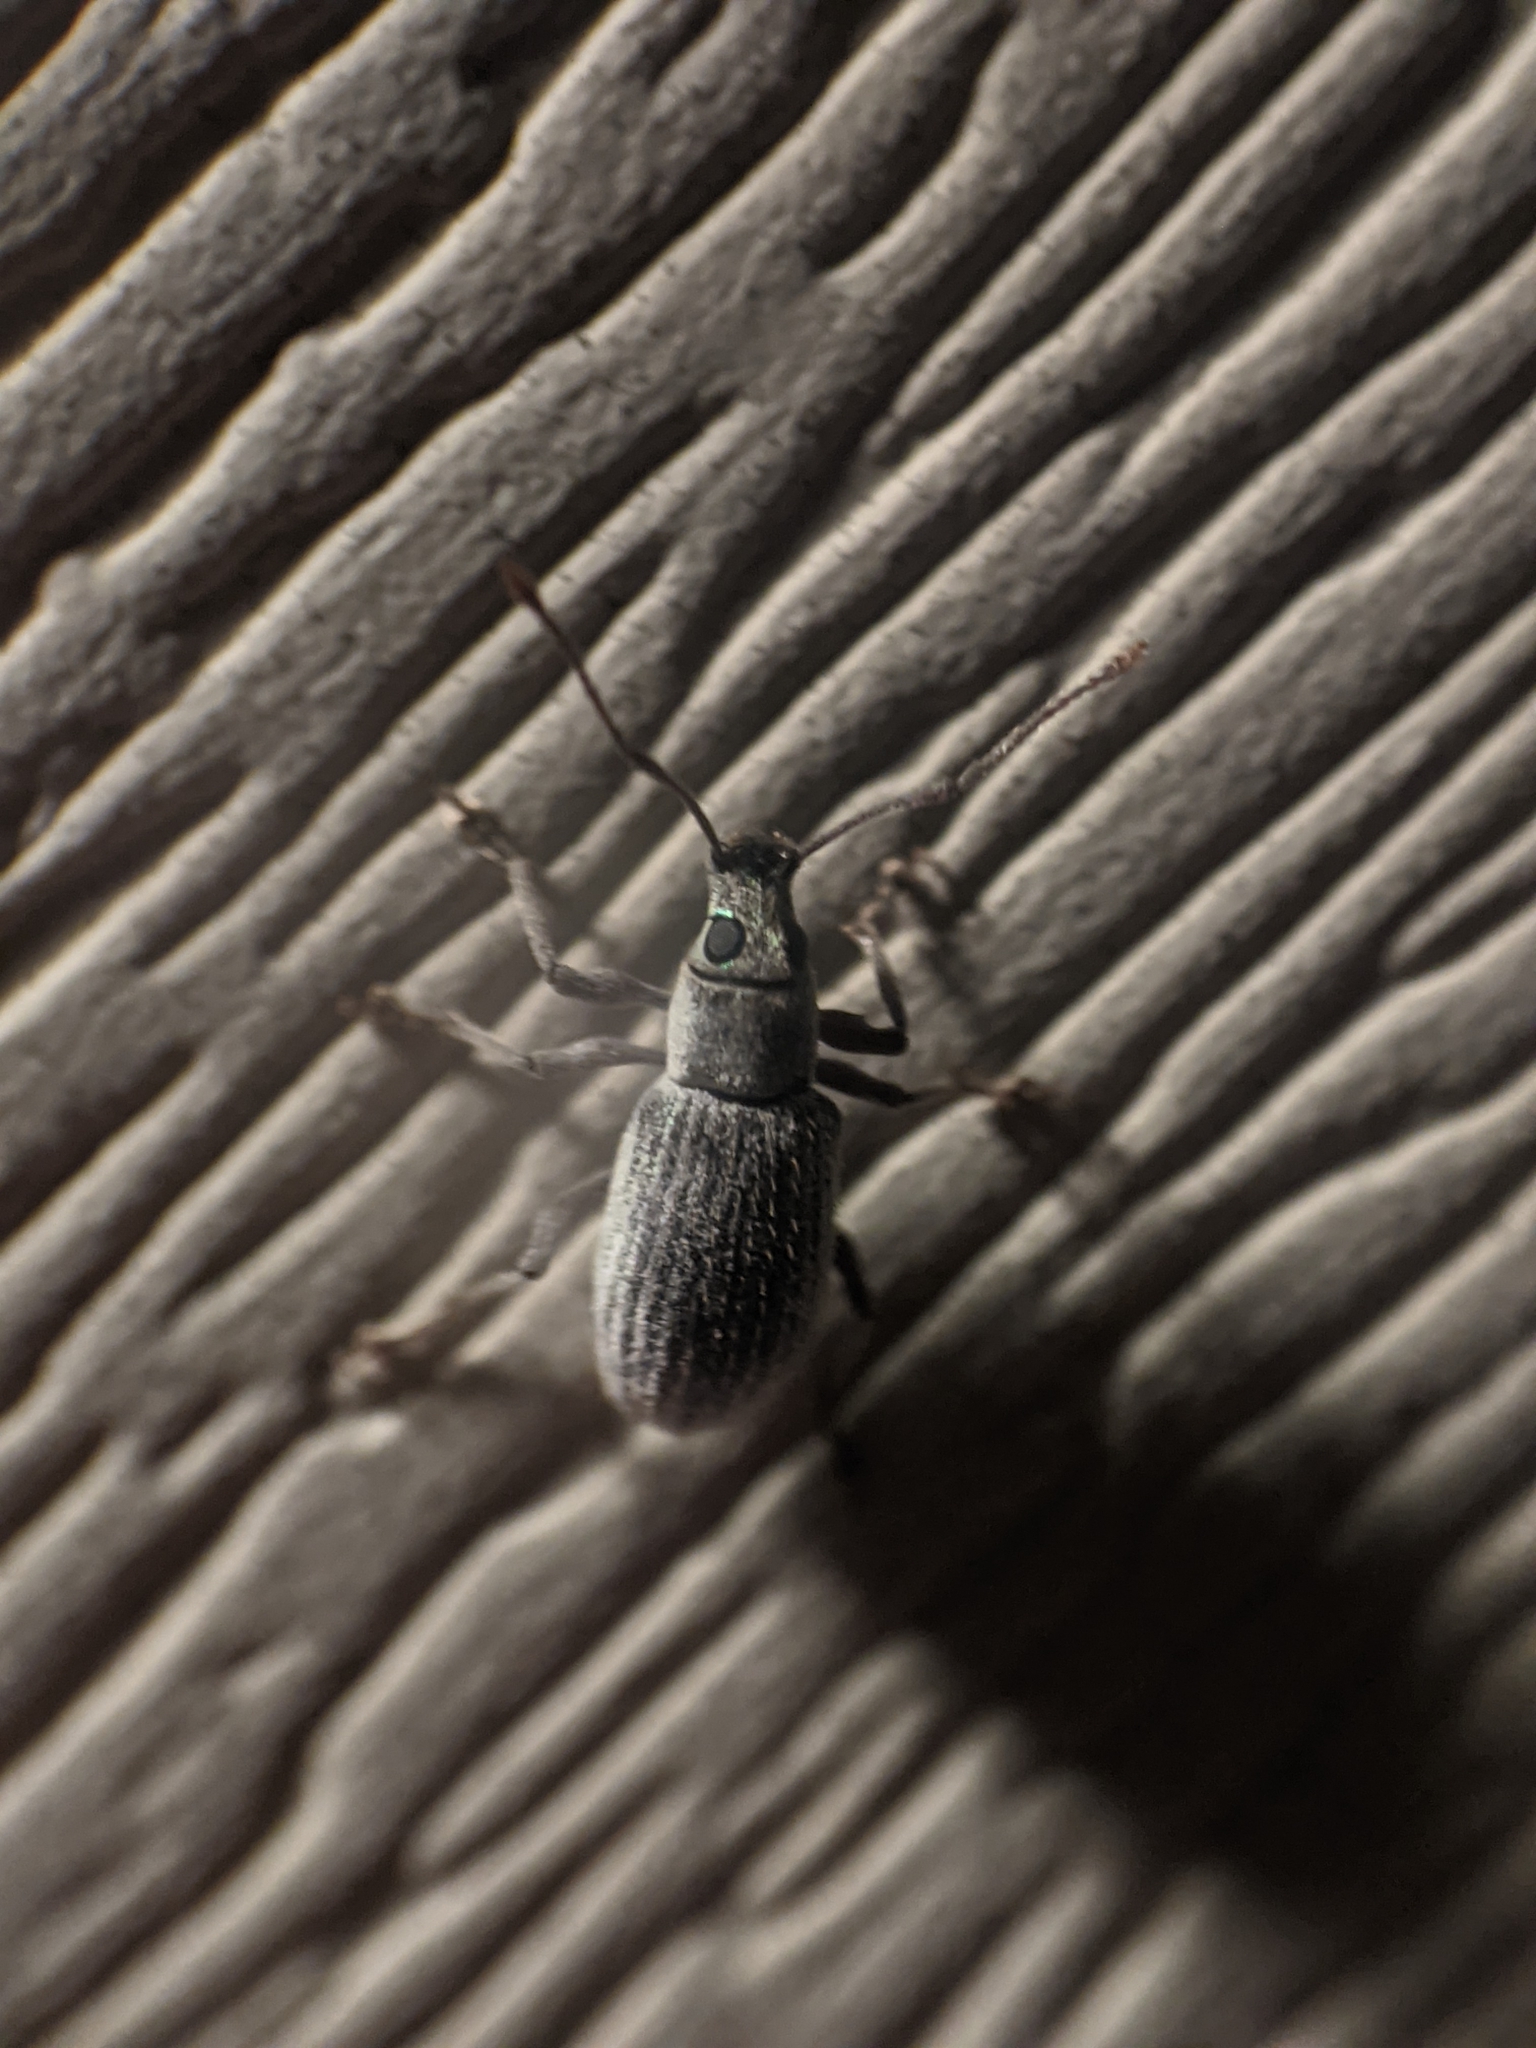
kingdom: Animalia
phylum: Arthropoda
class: Insecta
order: Coleoptera
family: Curculionidae
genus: Cyrtepistomus
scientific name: Cyrtepistomus castaneus
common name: Weevil
